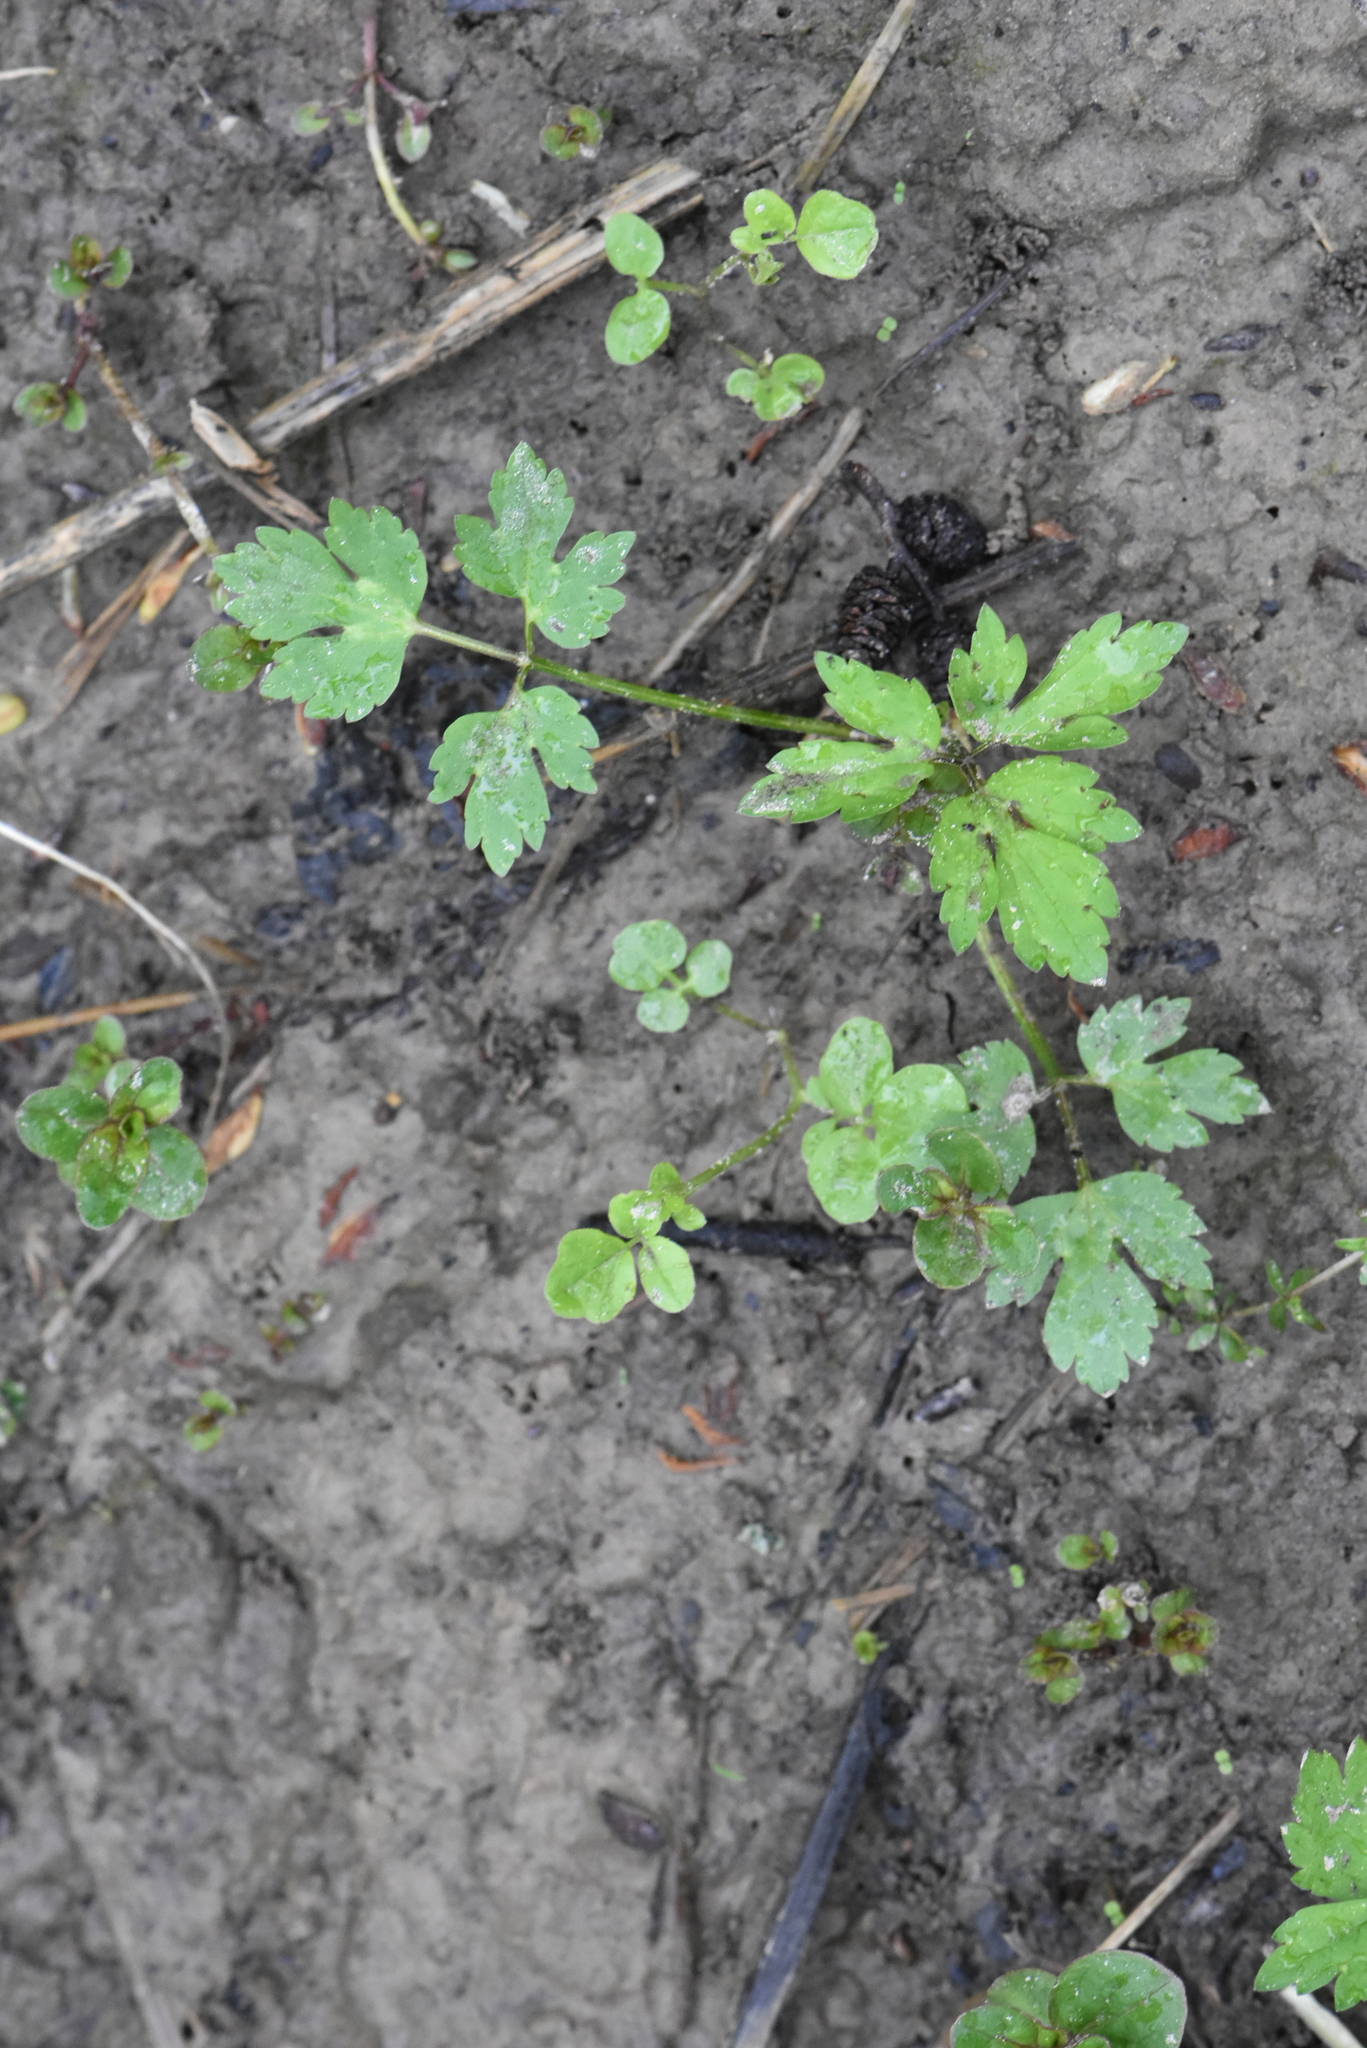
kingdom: Plantae
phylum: Tracheophyta
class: Magnoliopsida
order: Ranunculales
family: Ranunculaceae
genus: Ranunculus
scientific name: Ranunculus repens
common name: Creeping buttercup
